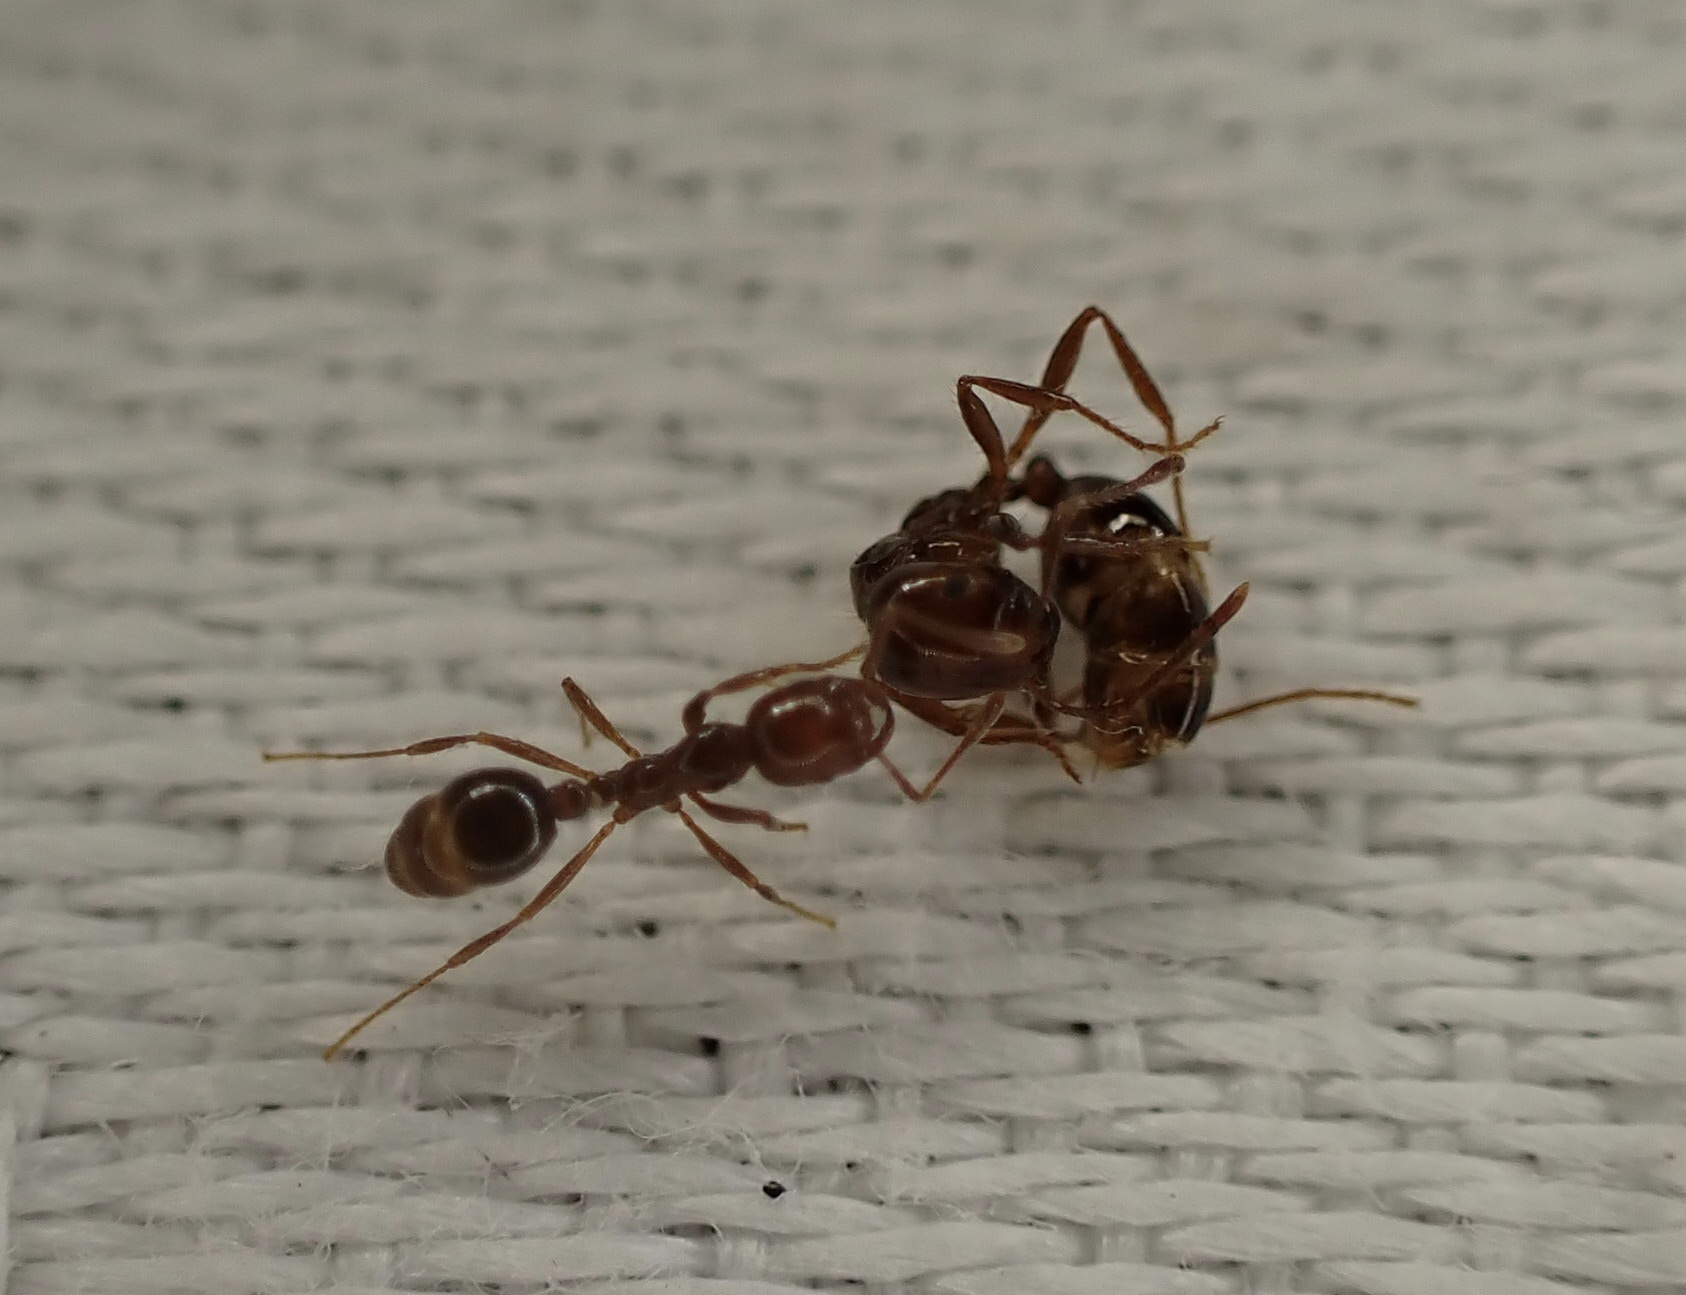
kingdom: Animalia
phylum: Arthropoda
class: Insecta
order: Hymenoptera
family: Formicidae
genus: Solenopsis
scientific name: Solenopsis invicta
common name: Red imported fire ant
